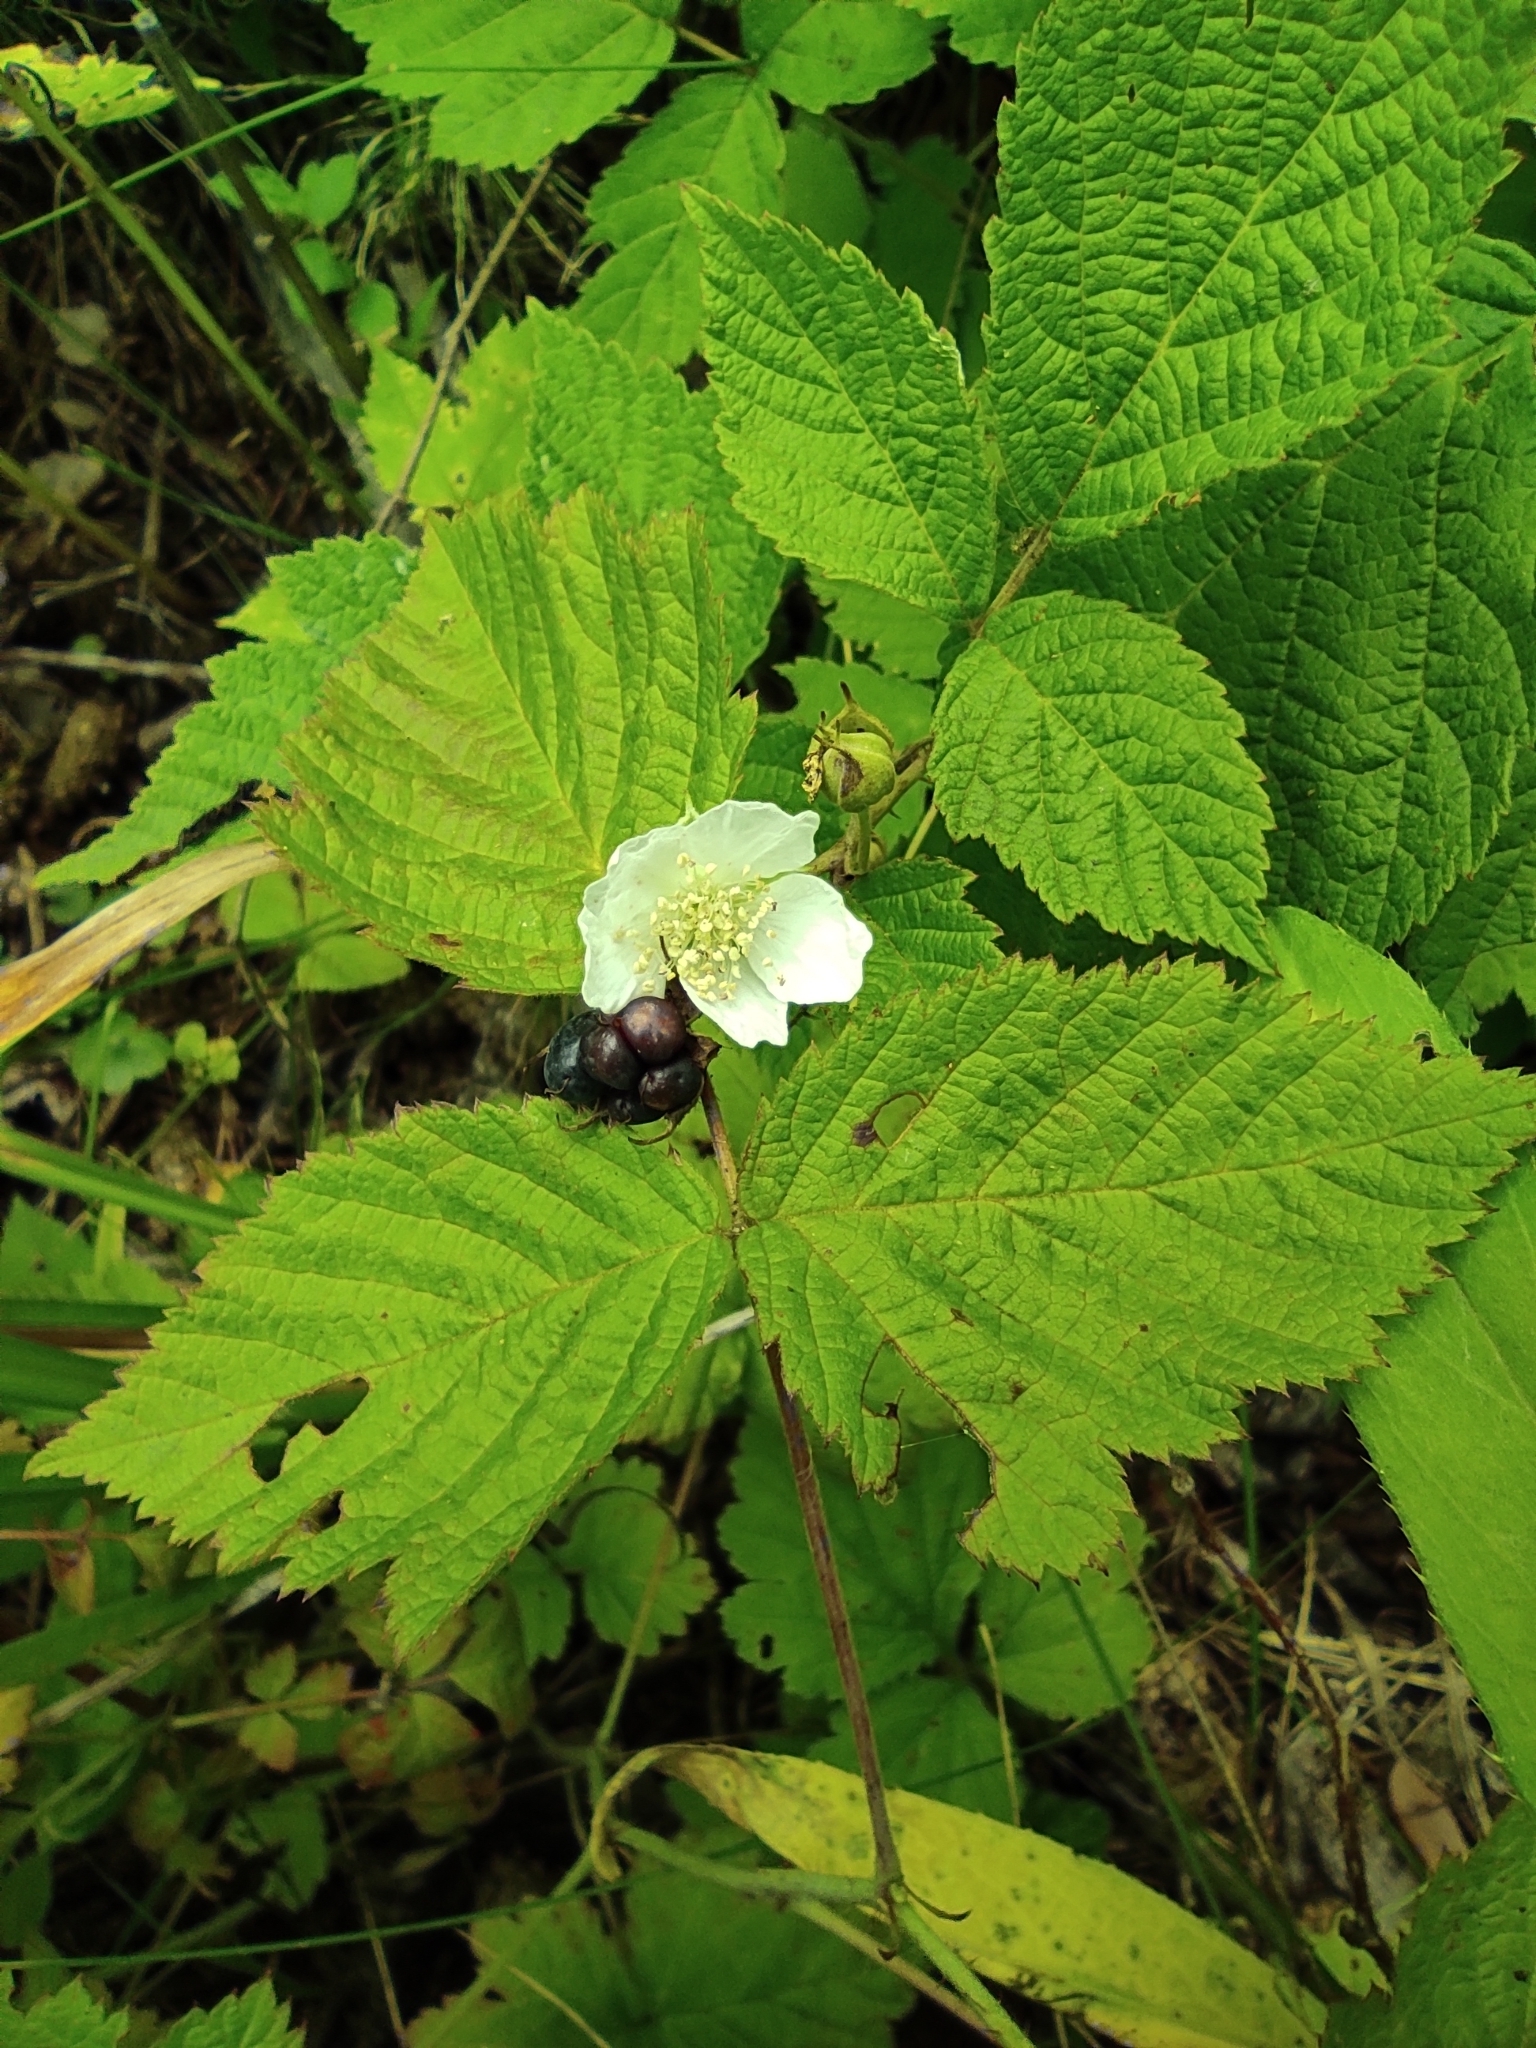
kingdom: Plantae
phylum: Tracheophyta
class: Magnoliopsida
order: Rosales
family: Rosaceae
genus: Rubus
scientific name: Rubus caesius
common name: Dewberry
